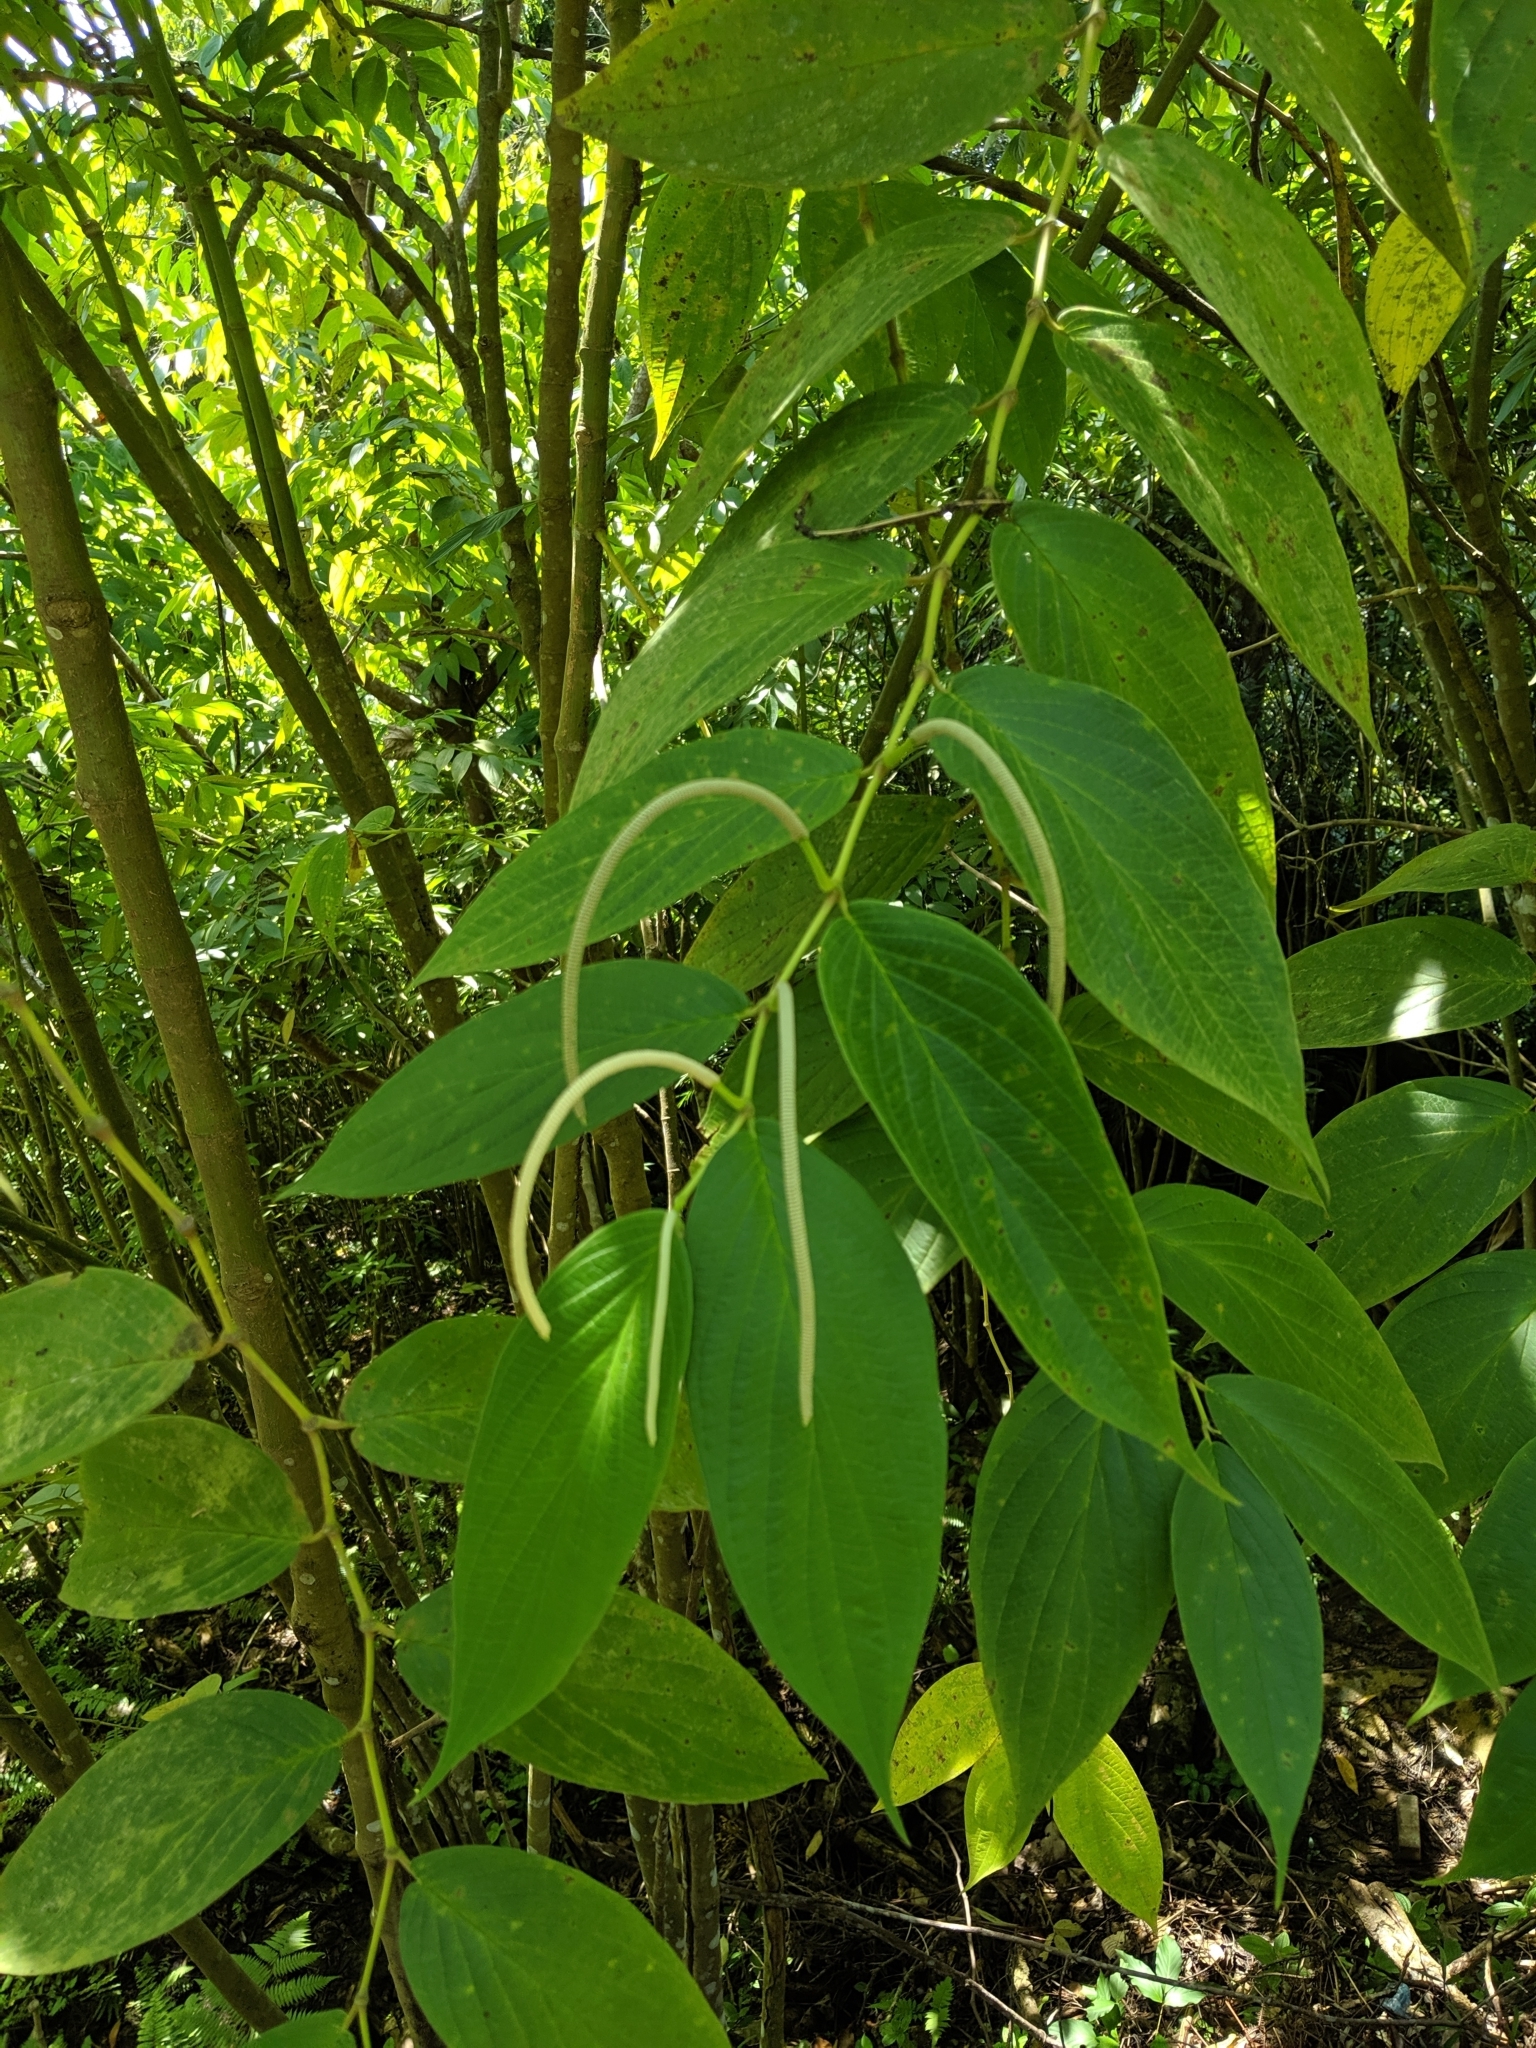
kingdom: Plantae
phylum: Tracheophyta
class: Magnoliopsida
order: Piperales
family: Piperaceae
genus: Piper
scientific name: Piper aduncum
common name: Spiked pepper
